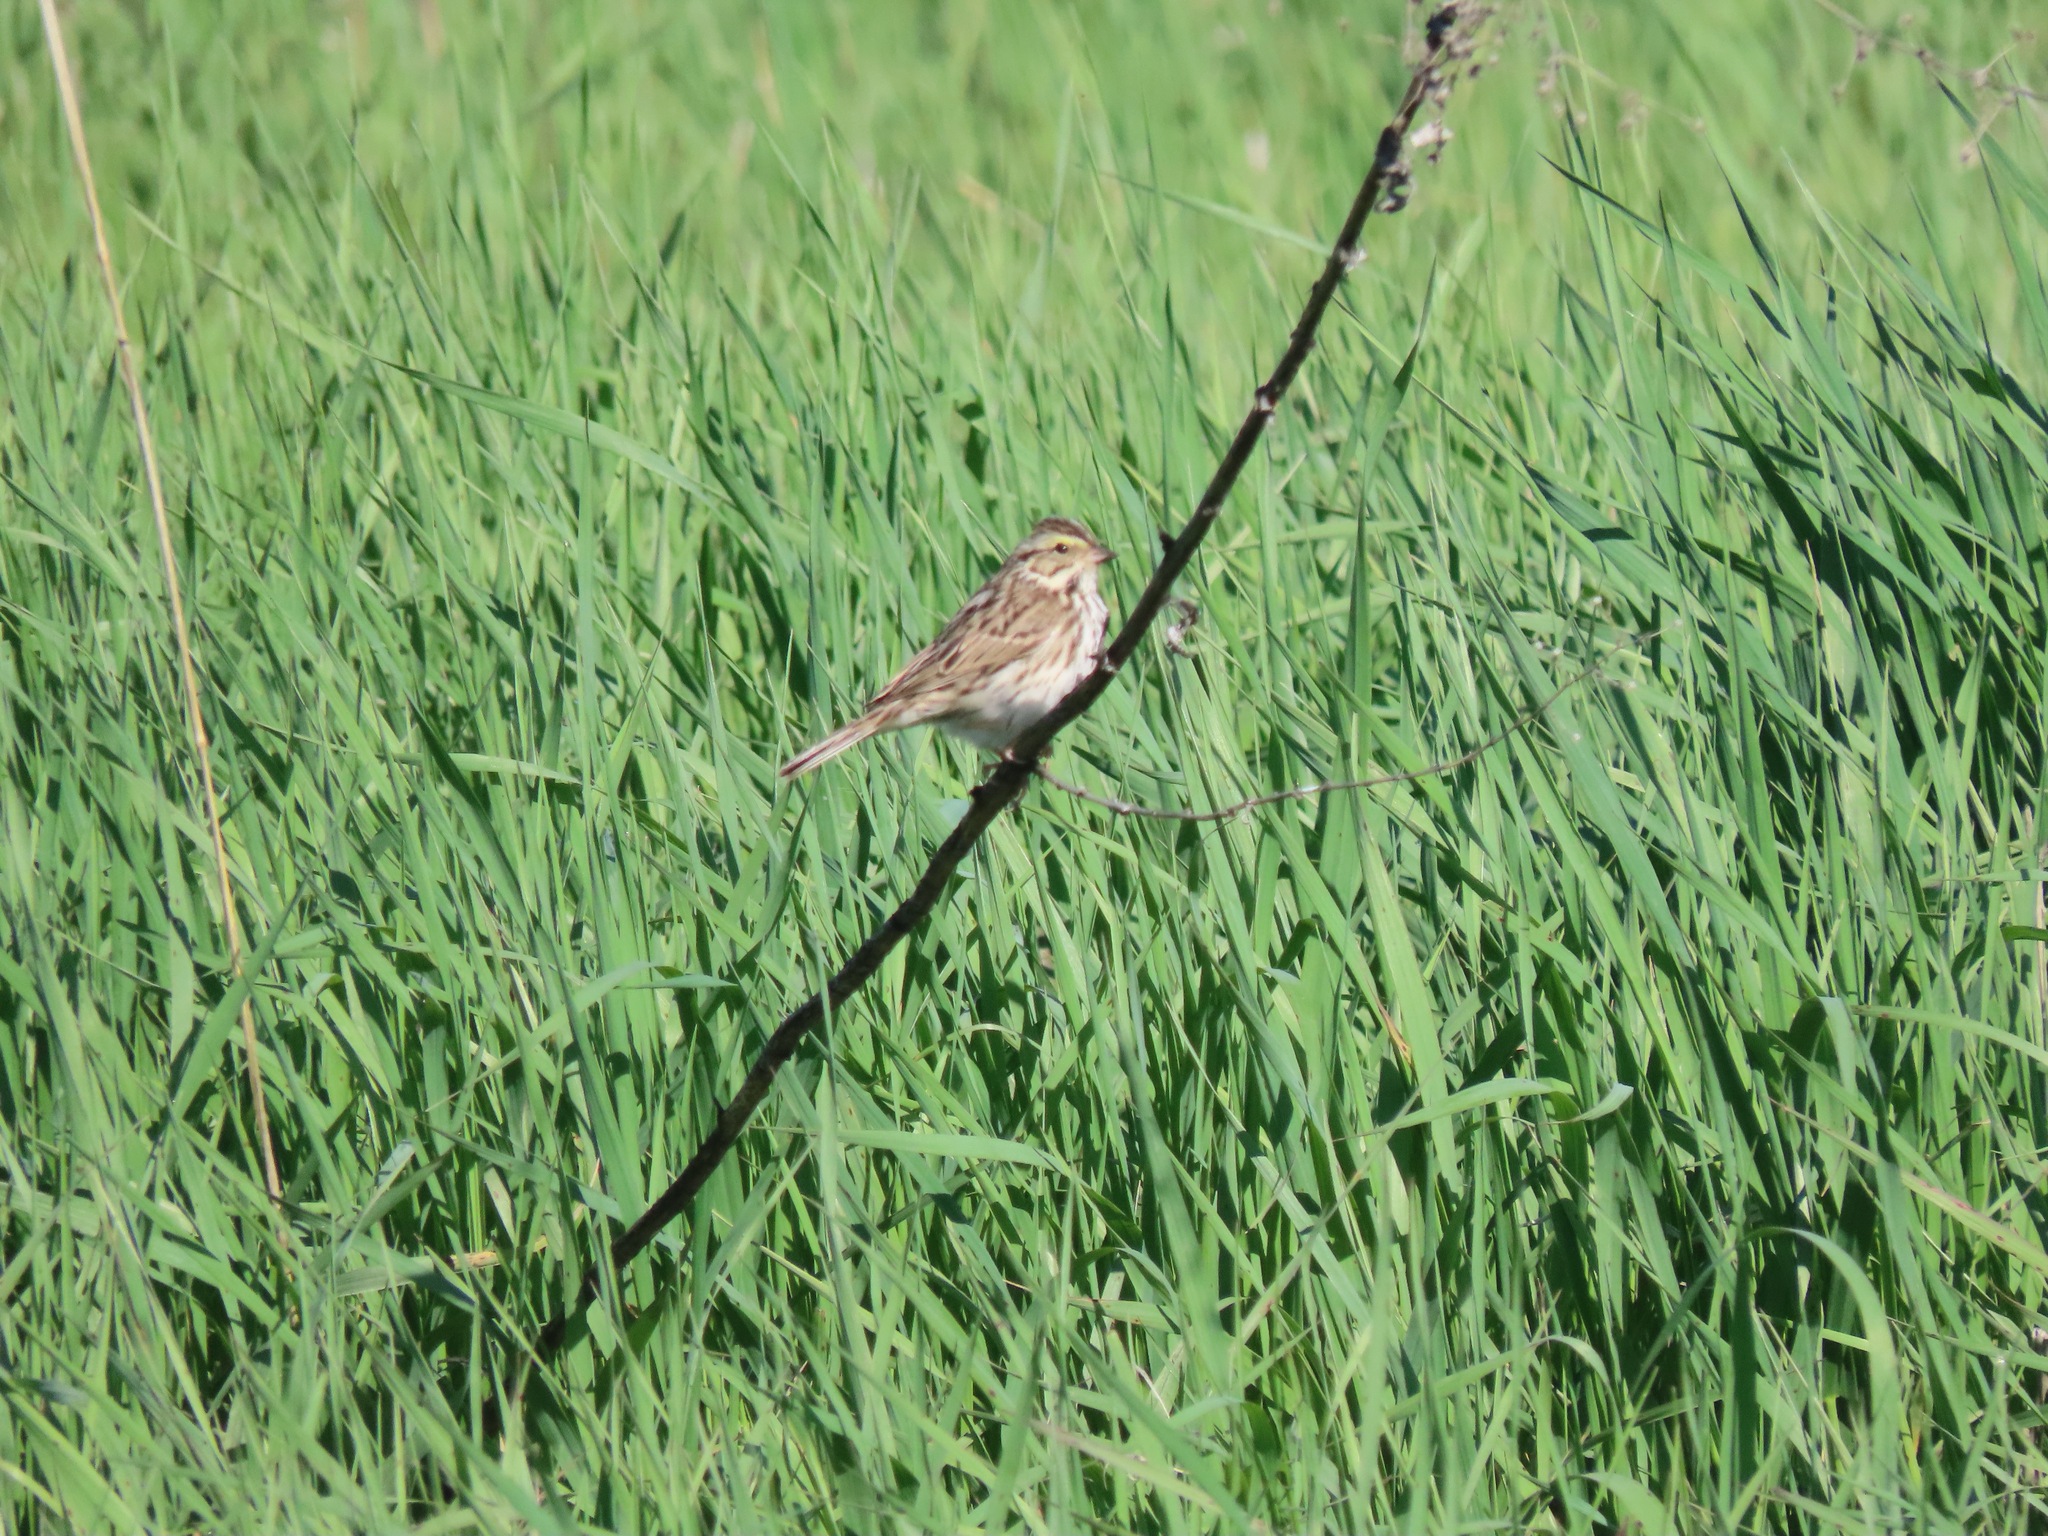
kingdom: Animalia
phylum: Chordata
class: Aves
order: Passeriformes
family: Passerellidae
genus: Passerculus
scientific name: Passerculus sandwichensis
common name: Savannah sparrow
